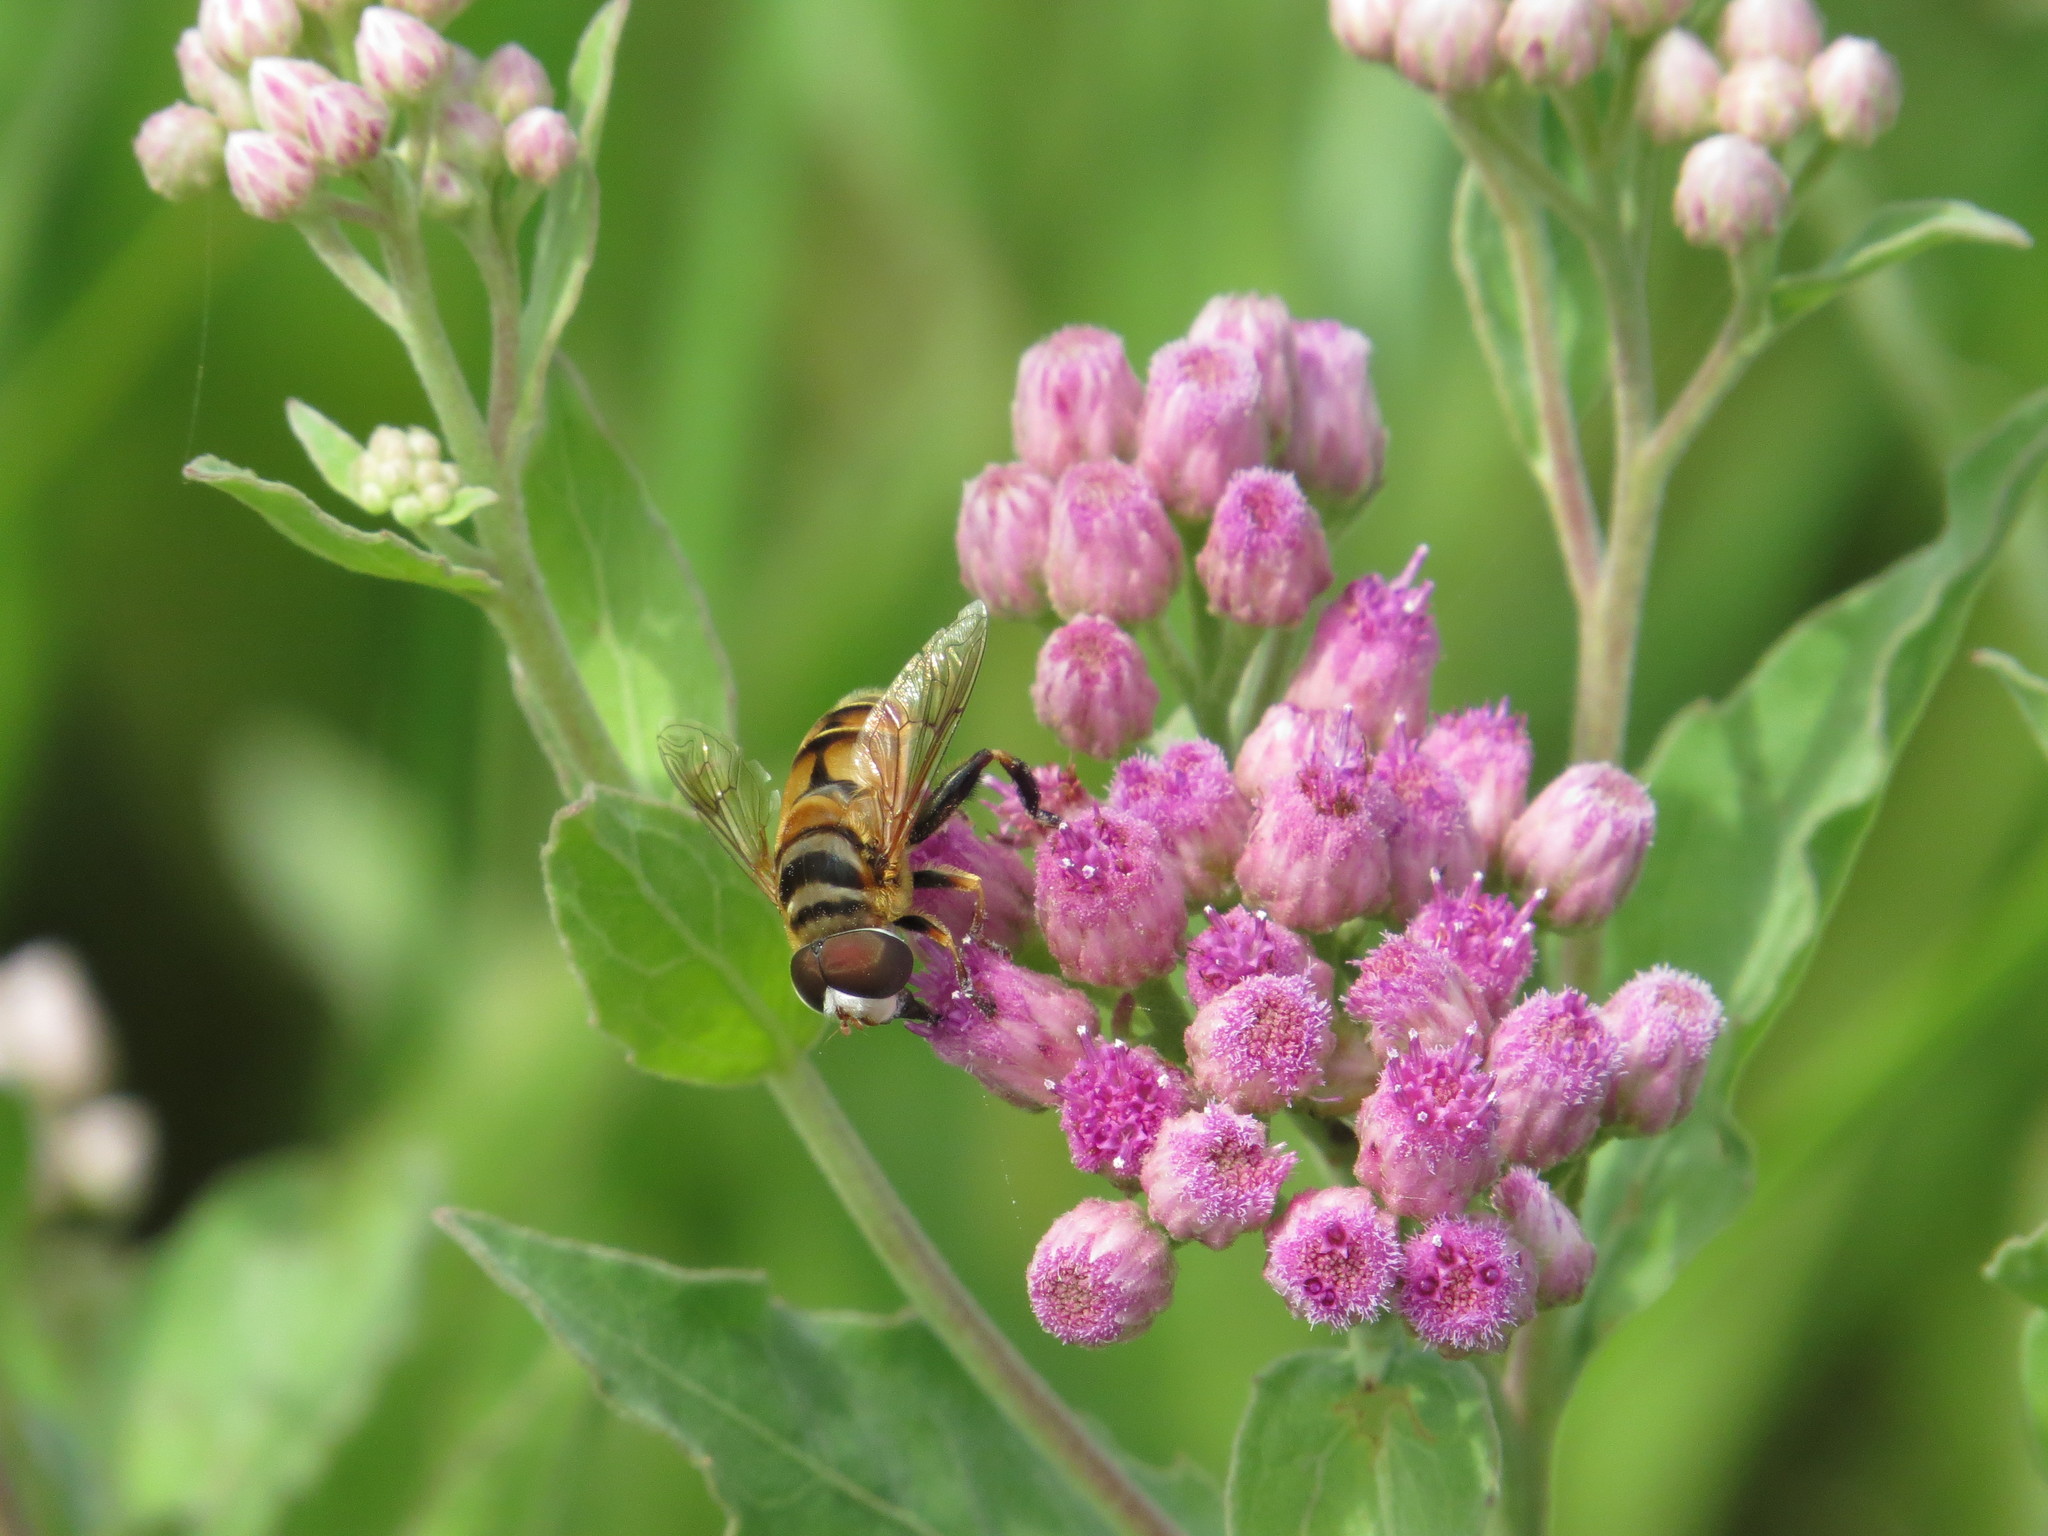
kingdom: Animalia
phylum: Arthropoda
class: Insecta
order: Diptera
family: Syrphidae
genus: Palpada
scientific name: Palpada vinetorum
